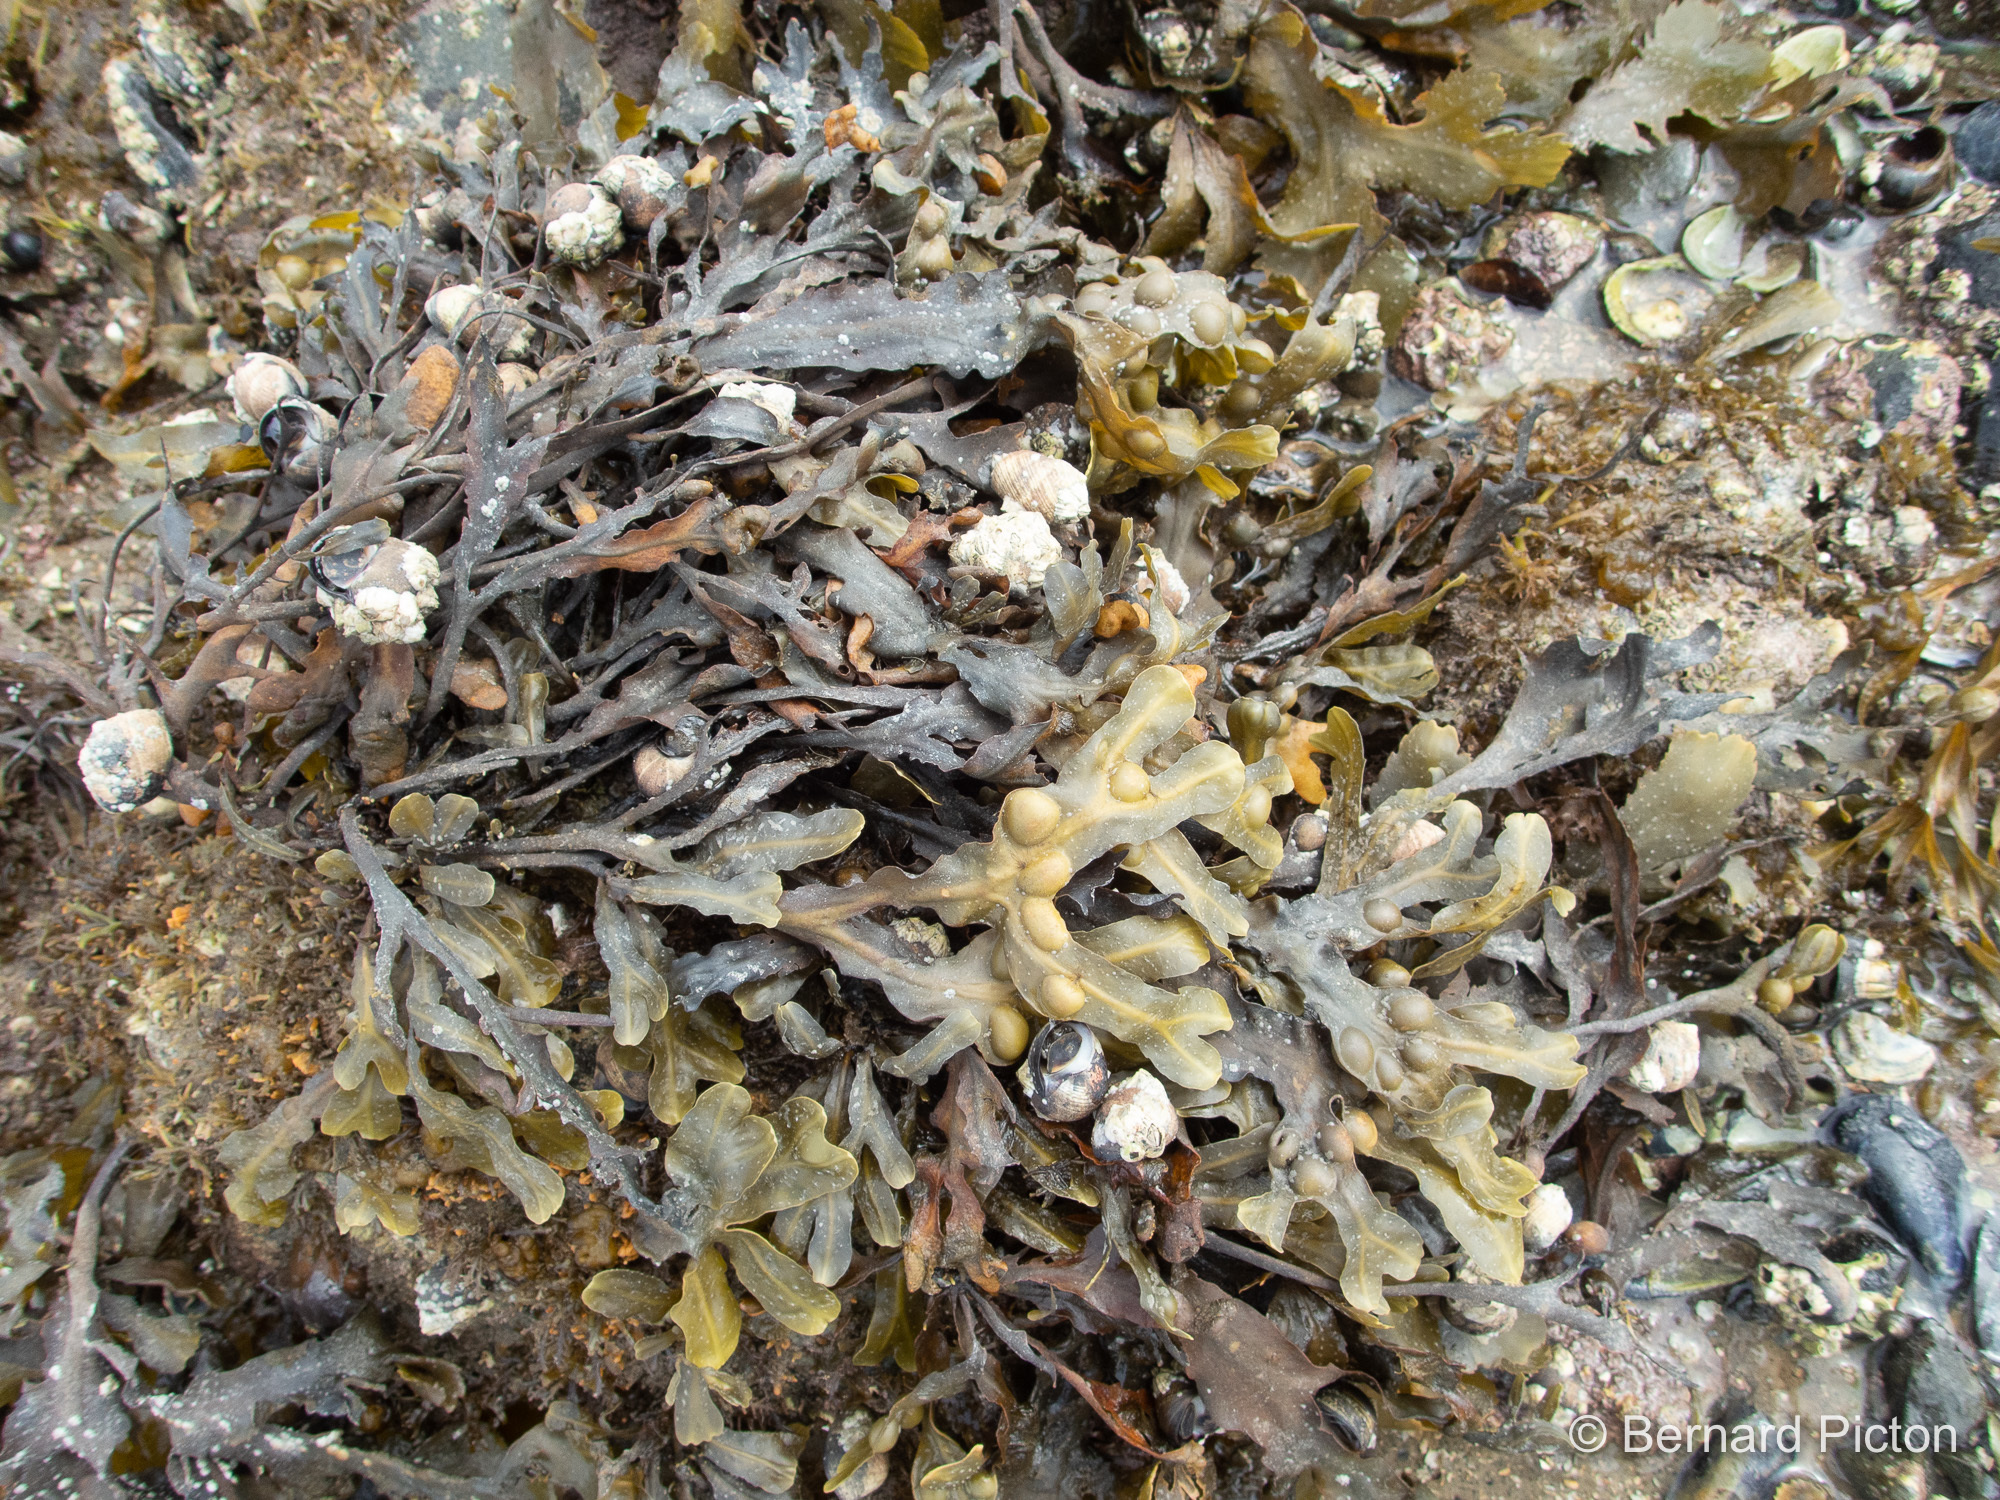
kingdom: Chromista
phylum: Ochrophyta
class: Phaeophyceae
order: Fucales
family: Fucaceae
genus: Fucus
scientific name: Fucus vesiculosus
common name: Bladder wrack
